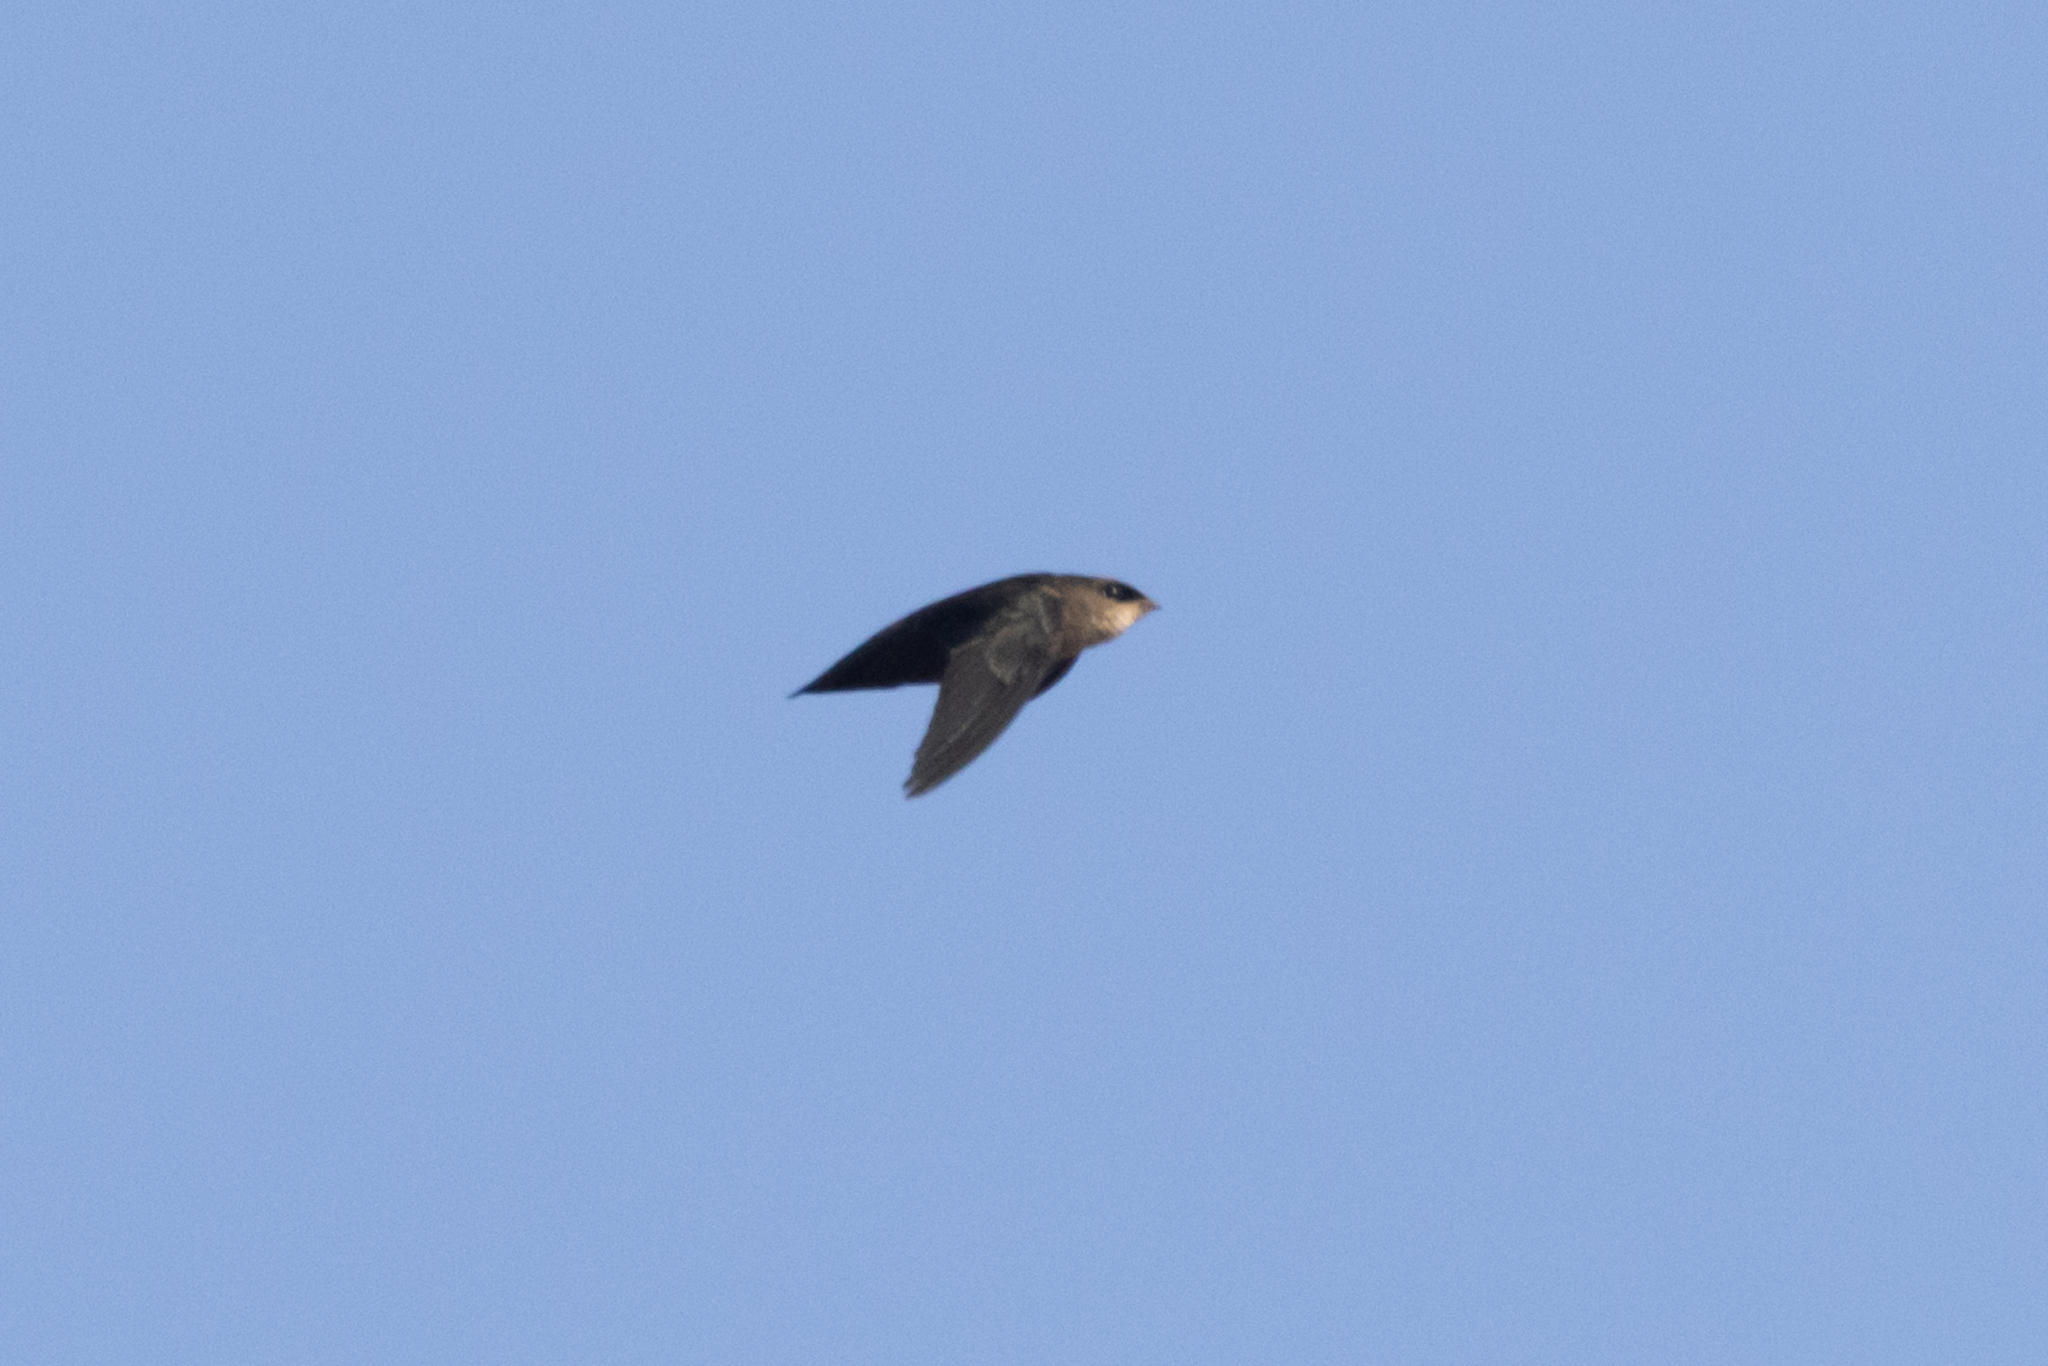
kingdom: Animalia
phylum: Chordata
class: Aves
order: Apodiformes
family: Apodidae
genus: Chaetura
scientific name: Chaetura vauxi
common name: Vaux's swift
